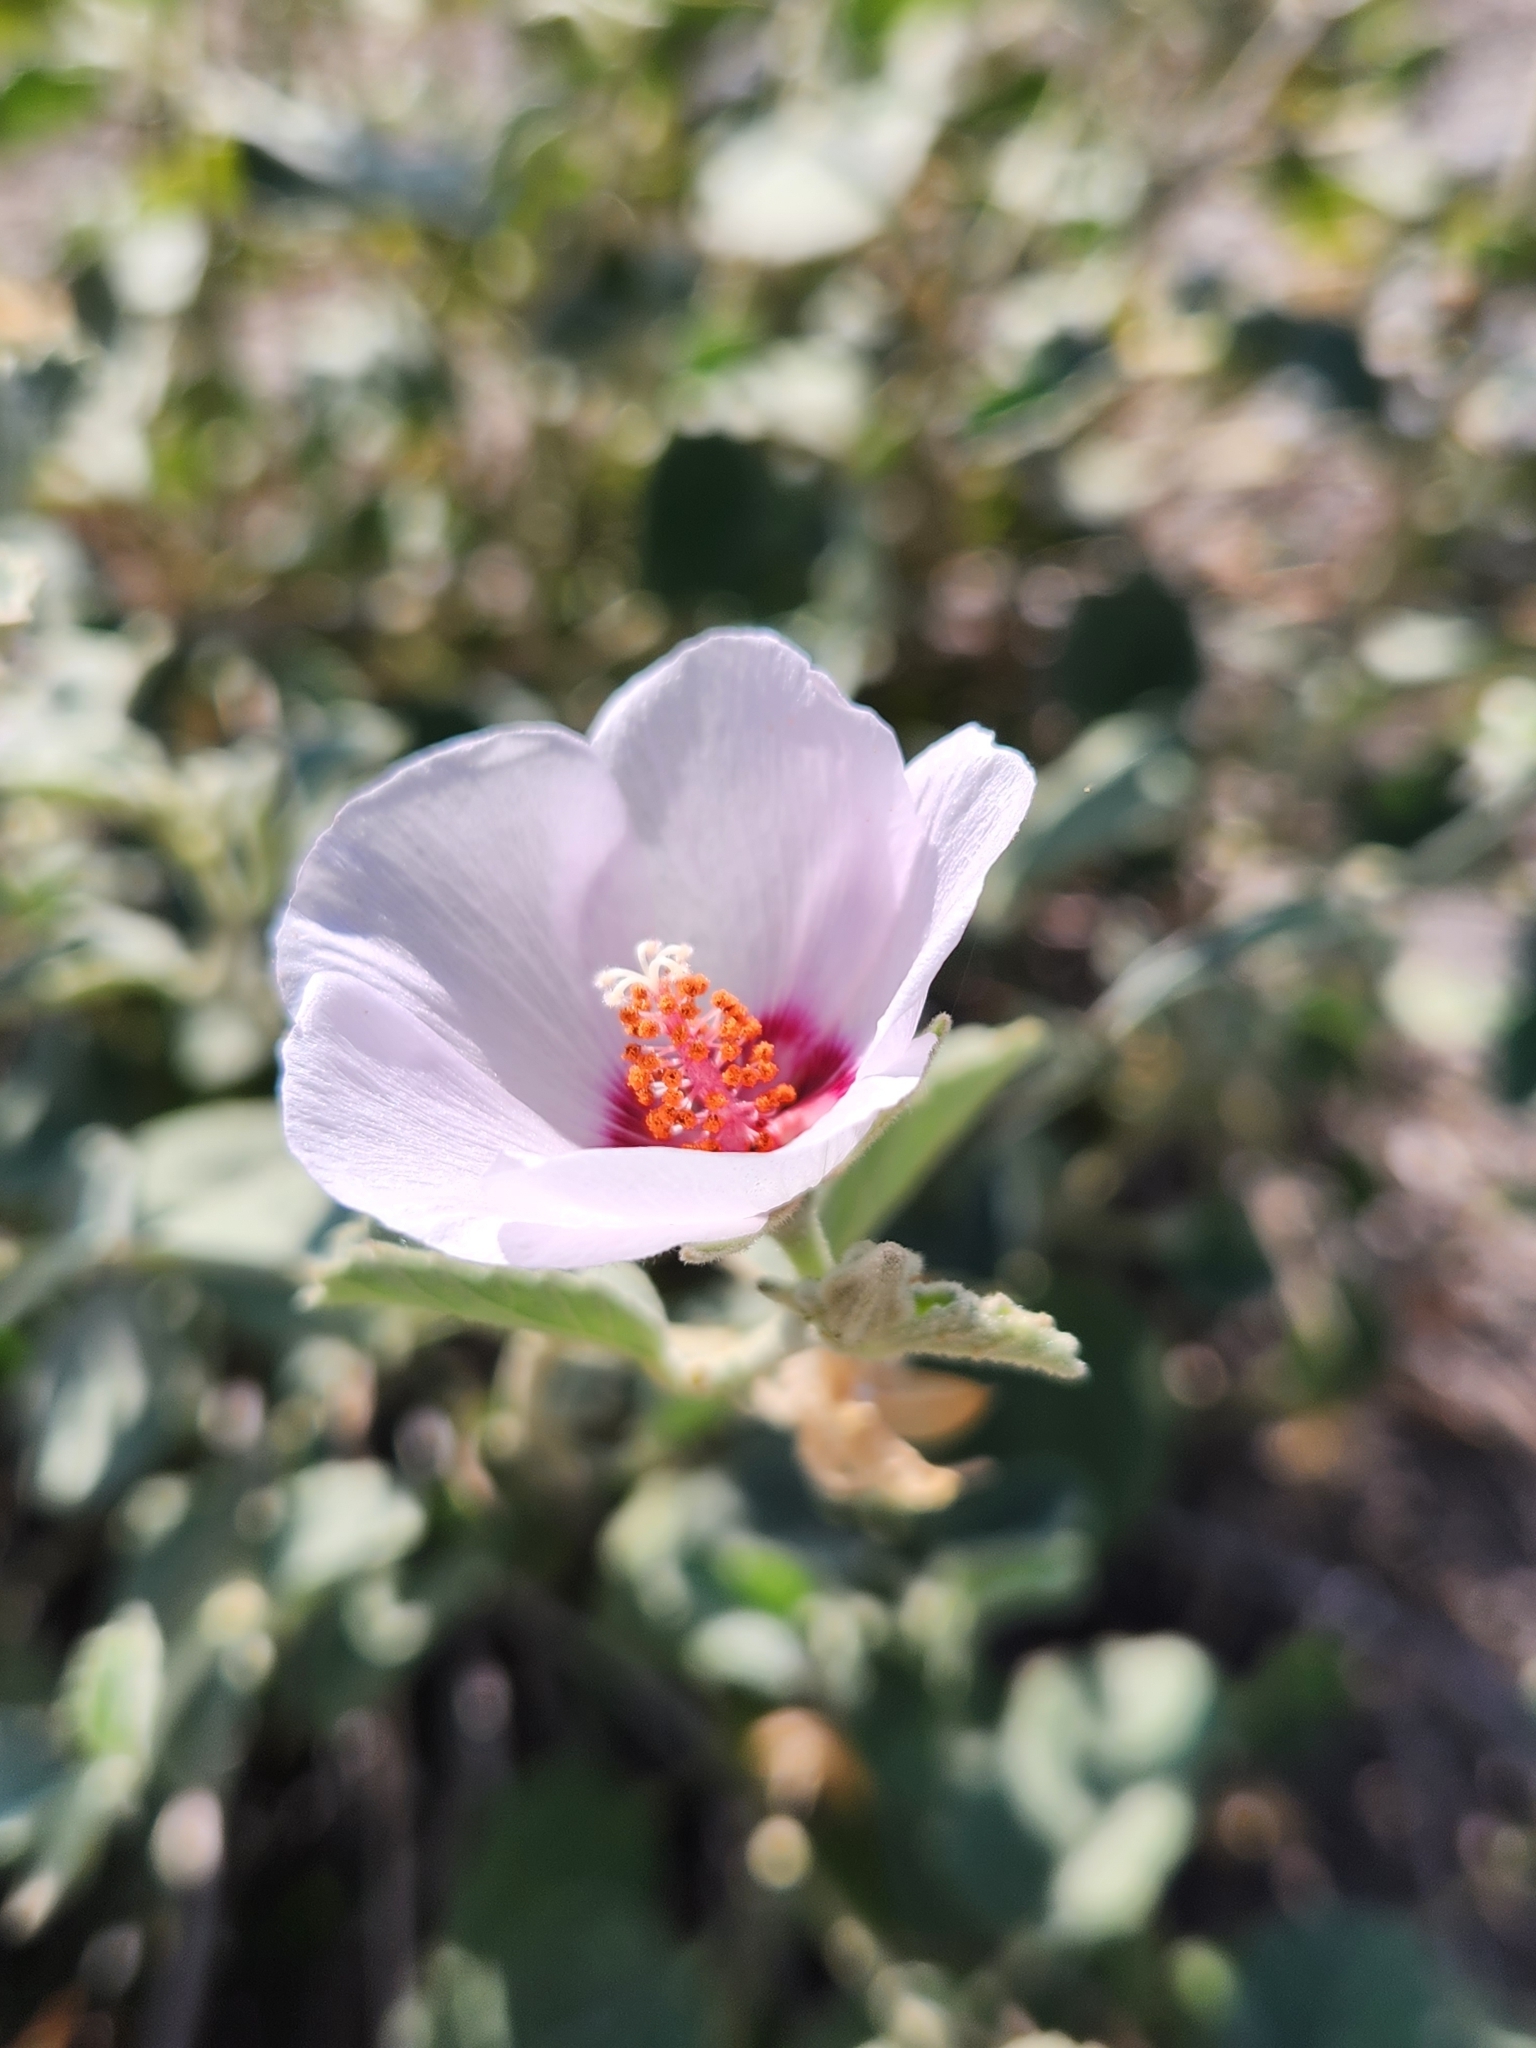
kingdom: Plantae
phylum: Tracheophyta
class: Magnoliopsida
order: Malvales
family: Malvaceae
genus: Hibiscus
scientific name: Hibiscus denudatus
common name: Paleface
